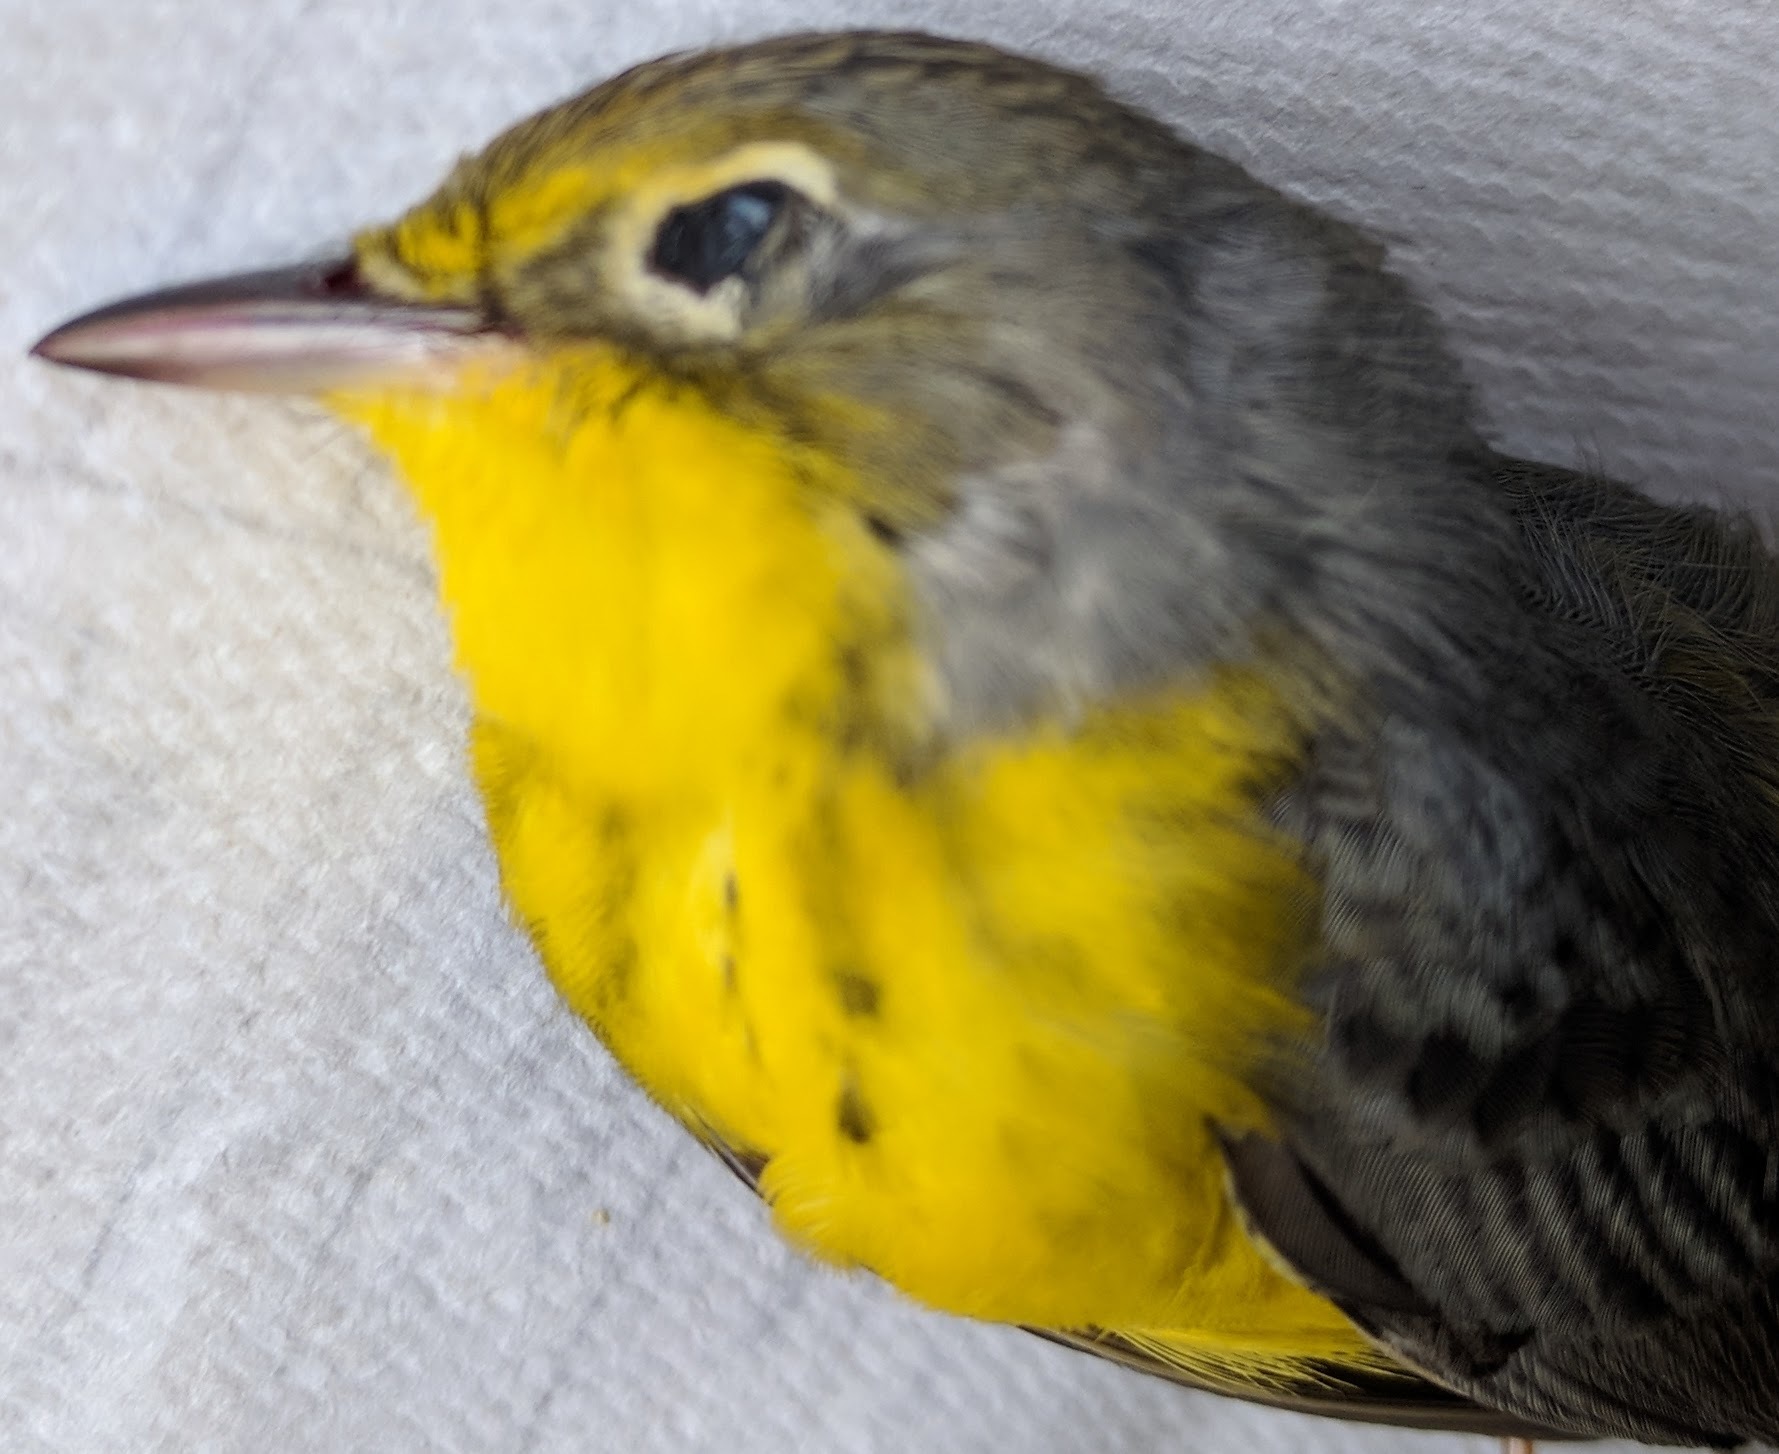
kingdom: Animalia
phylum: Chordata
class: Aves
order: Passeriformes
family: Parulidae
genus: Cardellina
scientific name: Cardellina canadensis
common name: Canada warbler
